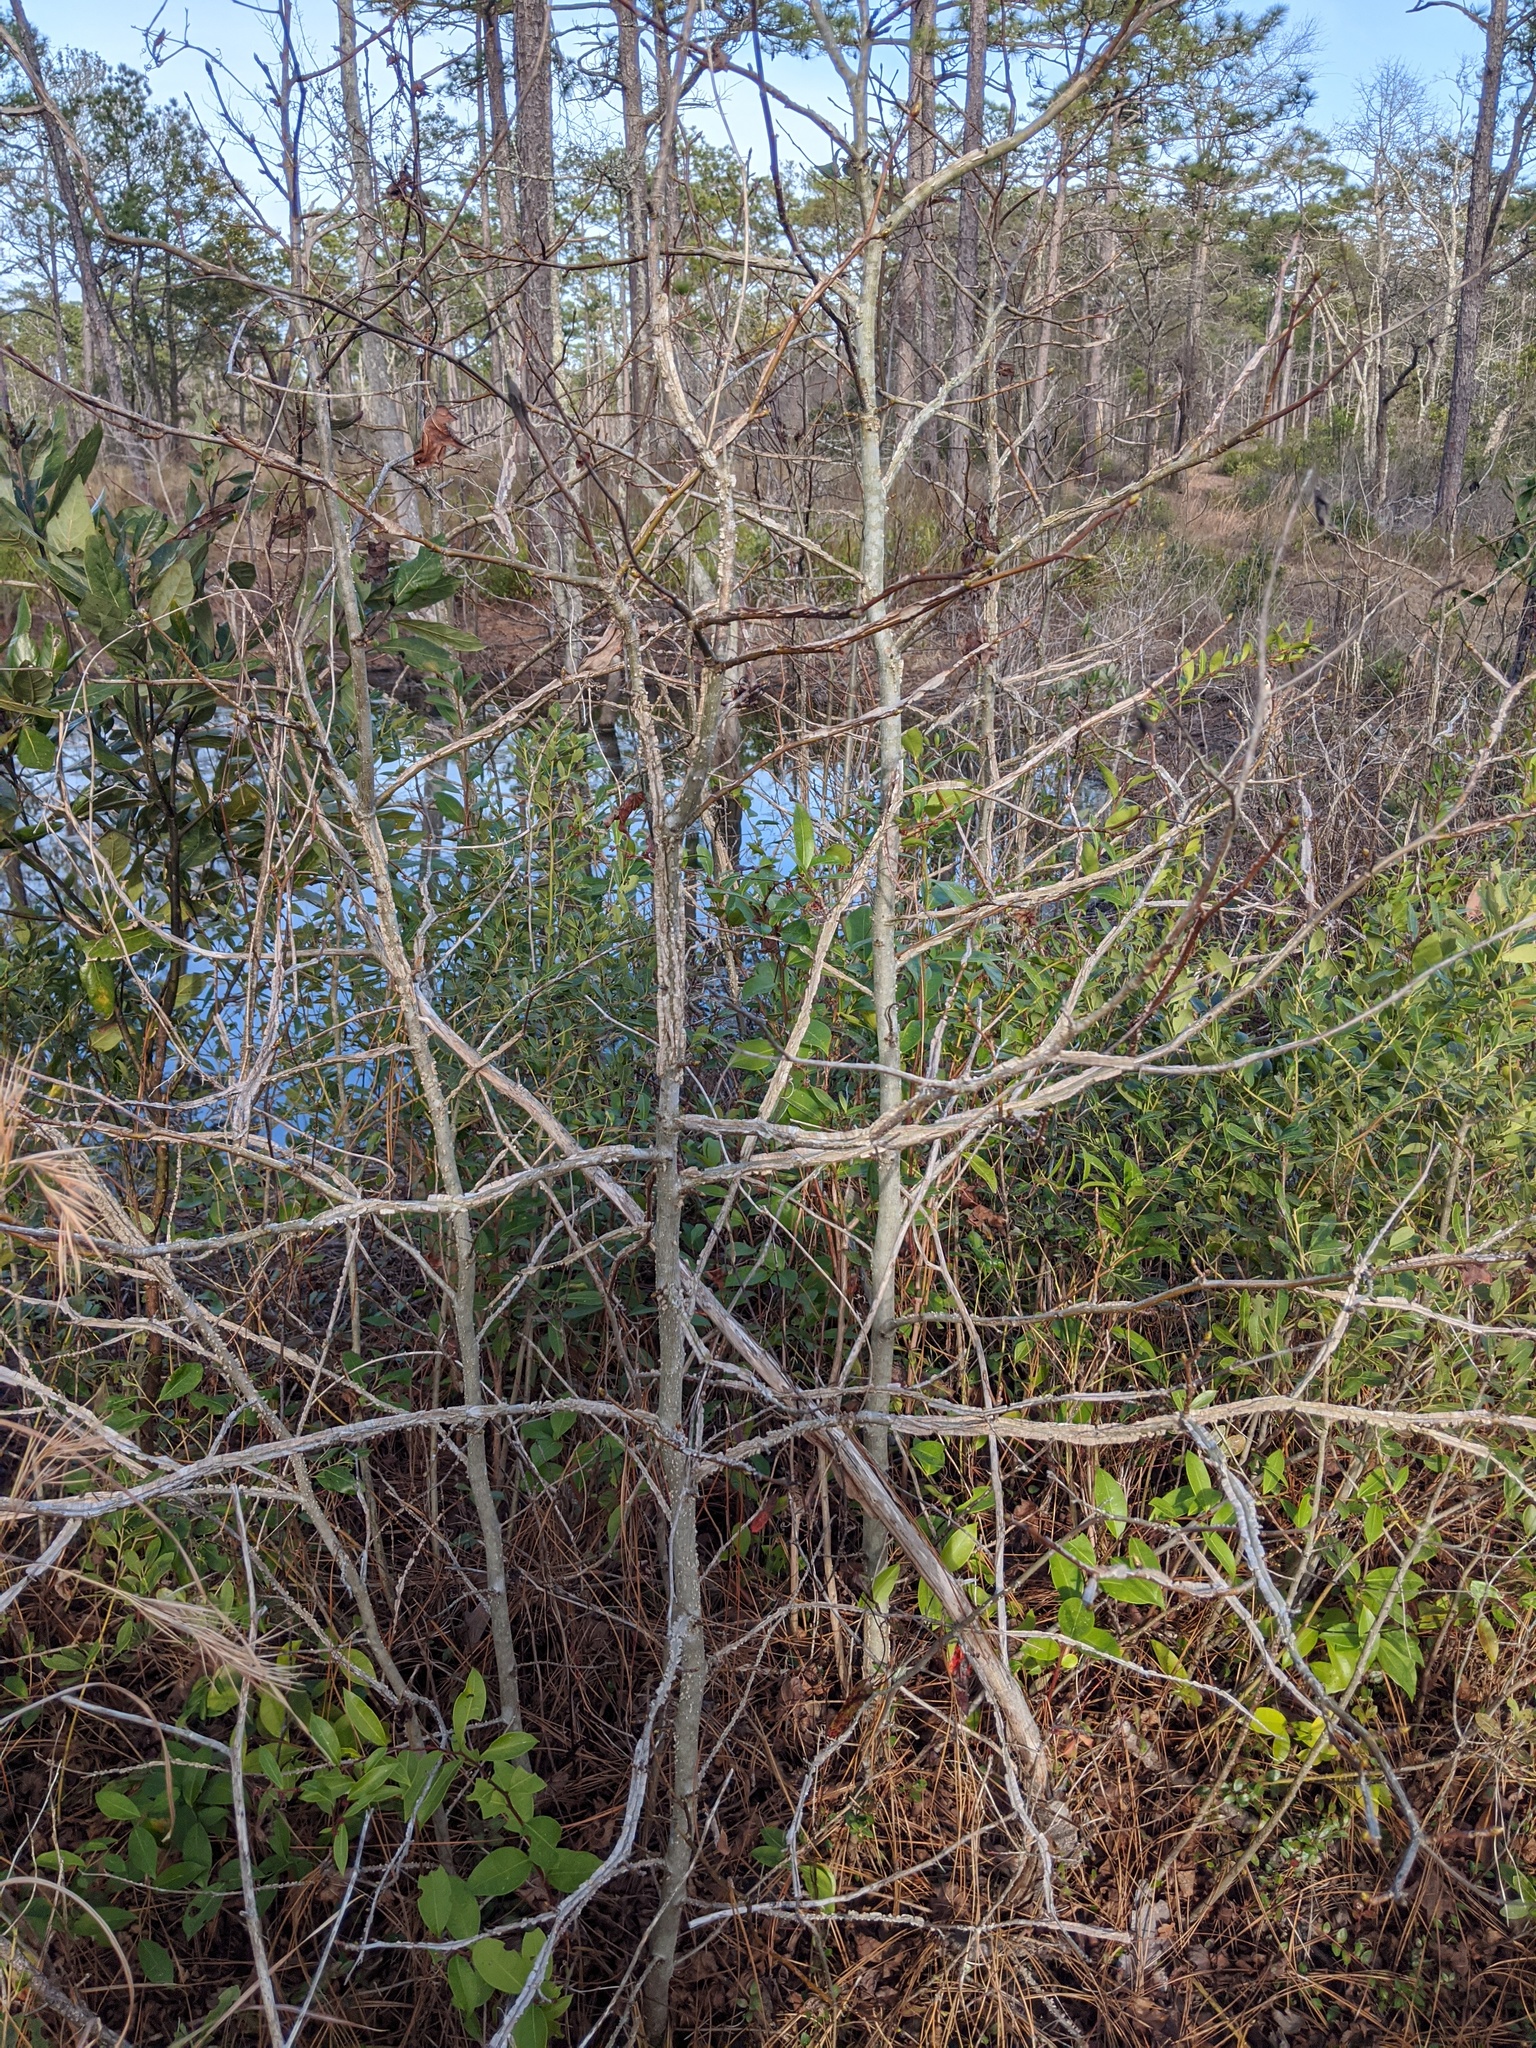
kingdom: Plantae
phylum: Tracheophyta
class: Magnoliopsida
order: Saxifragales
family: Altingiaceae
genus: Liquidambar
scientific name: Liquidambar styraciflua
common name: Sweet gum
